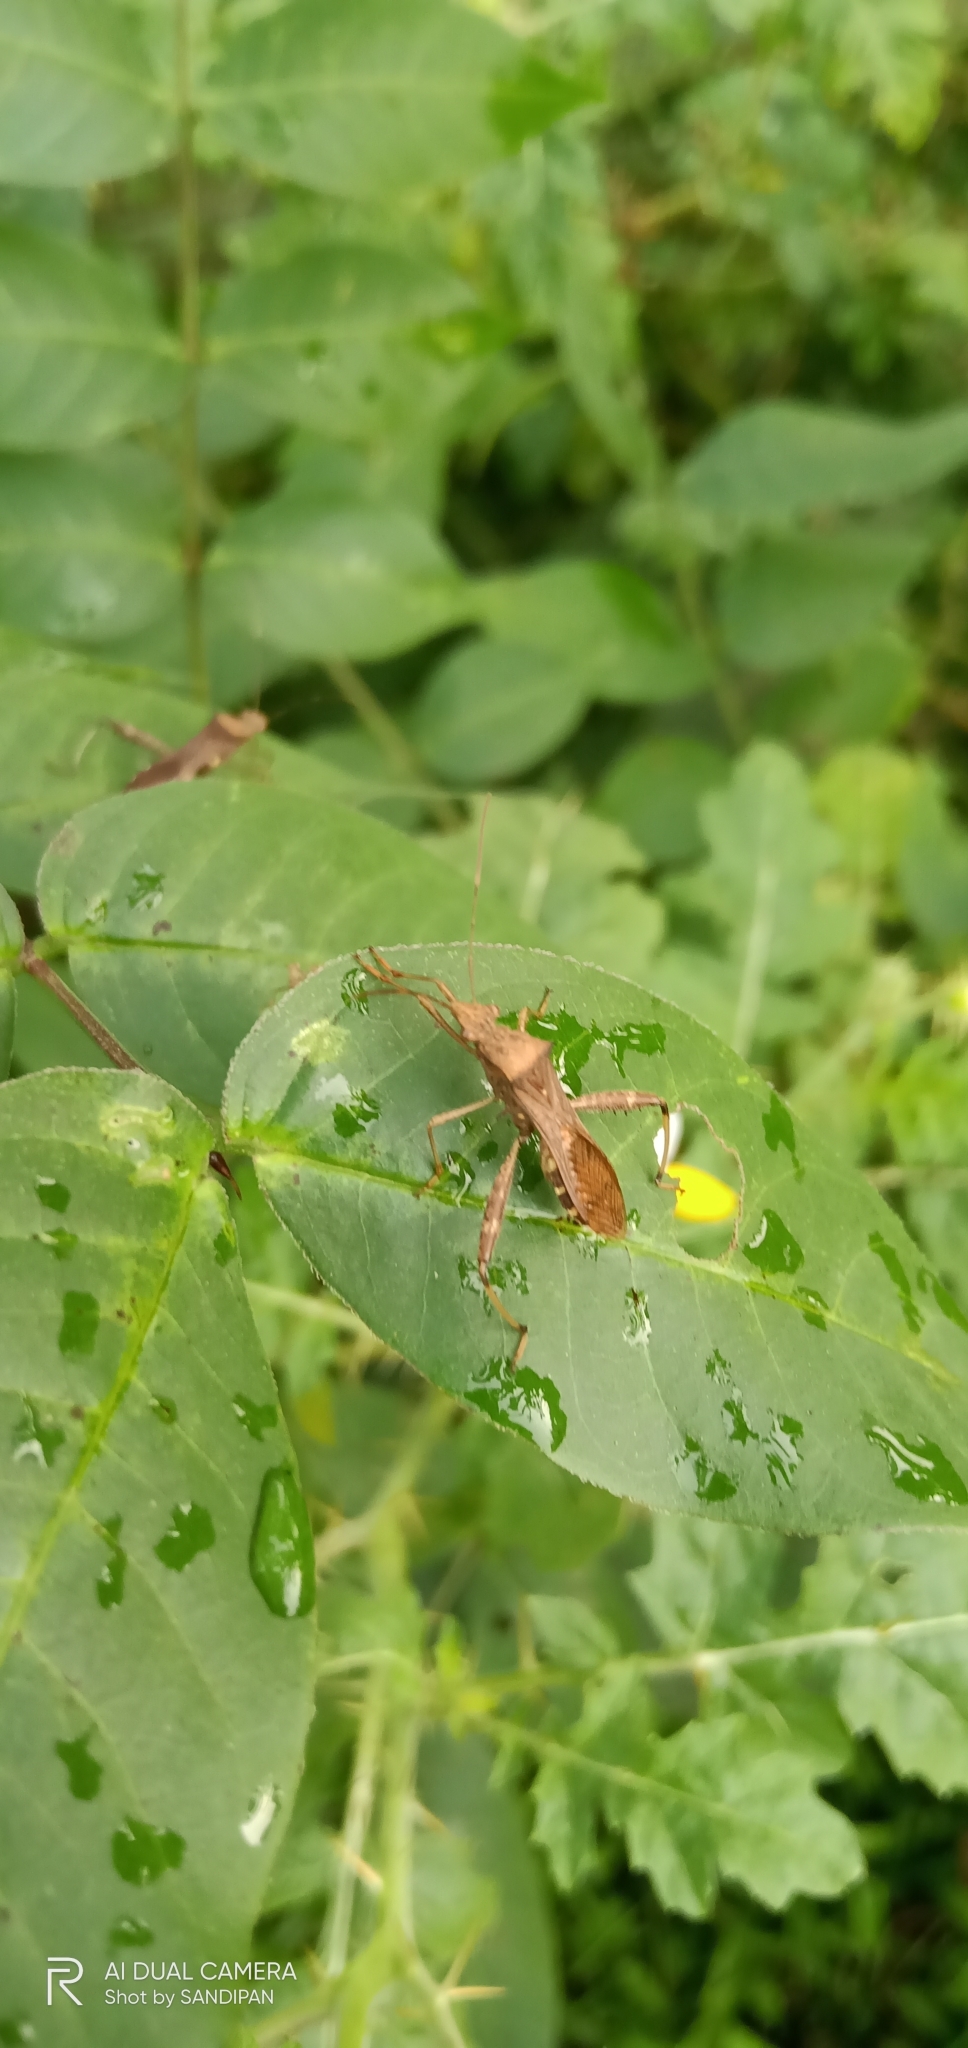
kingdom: Animalia
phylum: Arthropoda
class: Insecta
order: Hemiptera
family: Alydidae
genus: Riptortus
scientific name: Riptortus pedestris
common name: Bean bug
